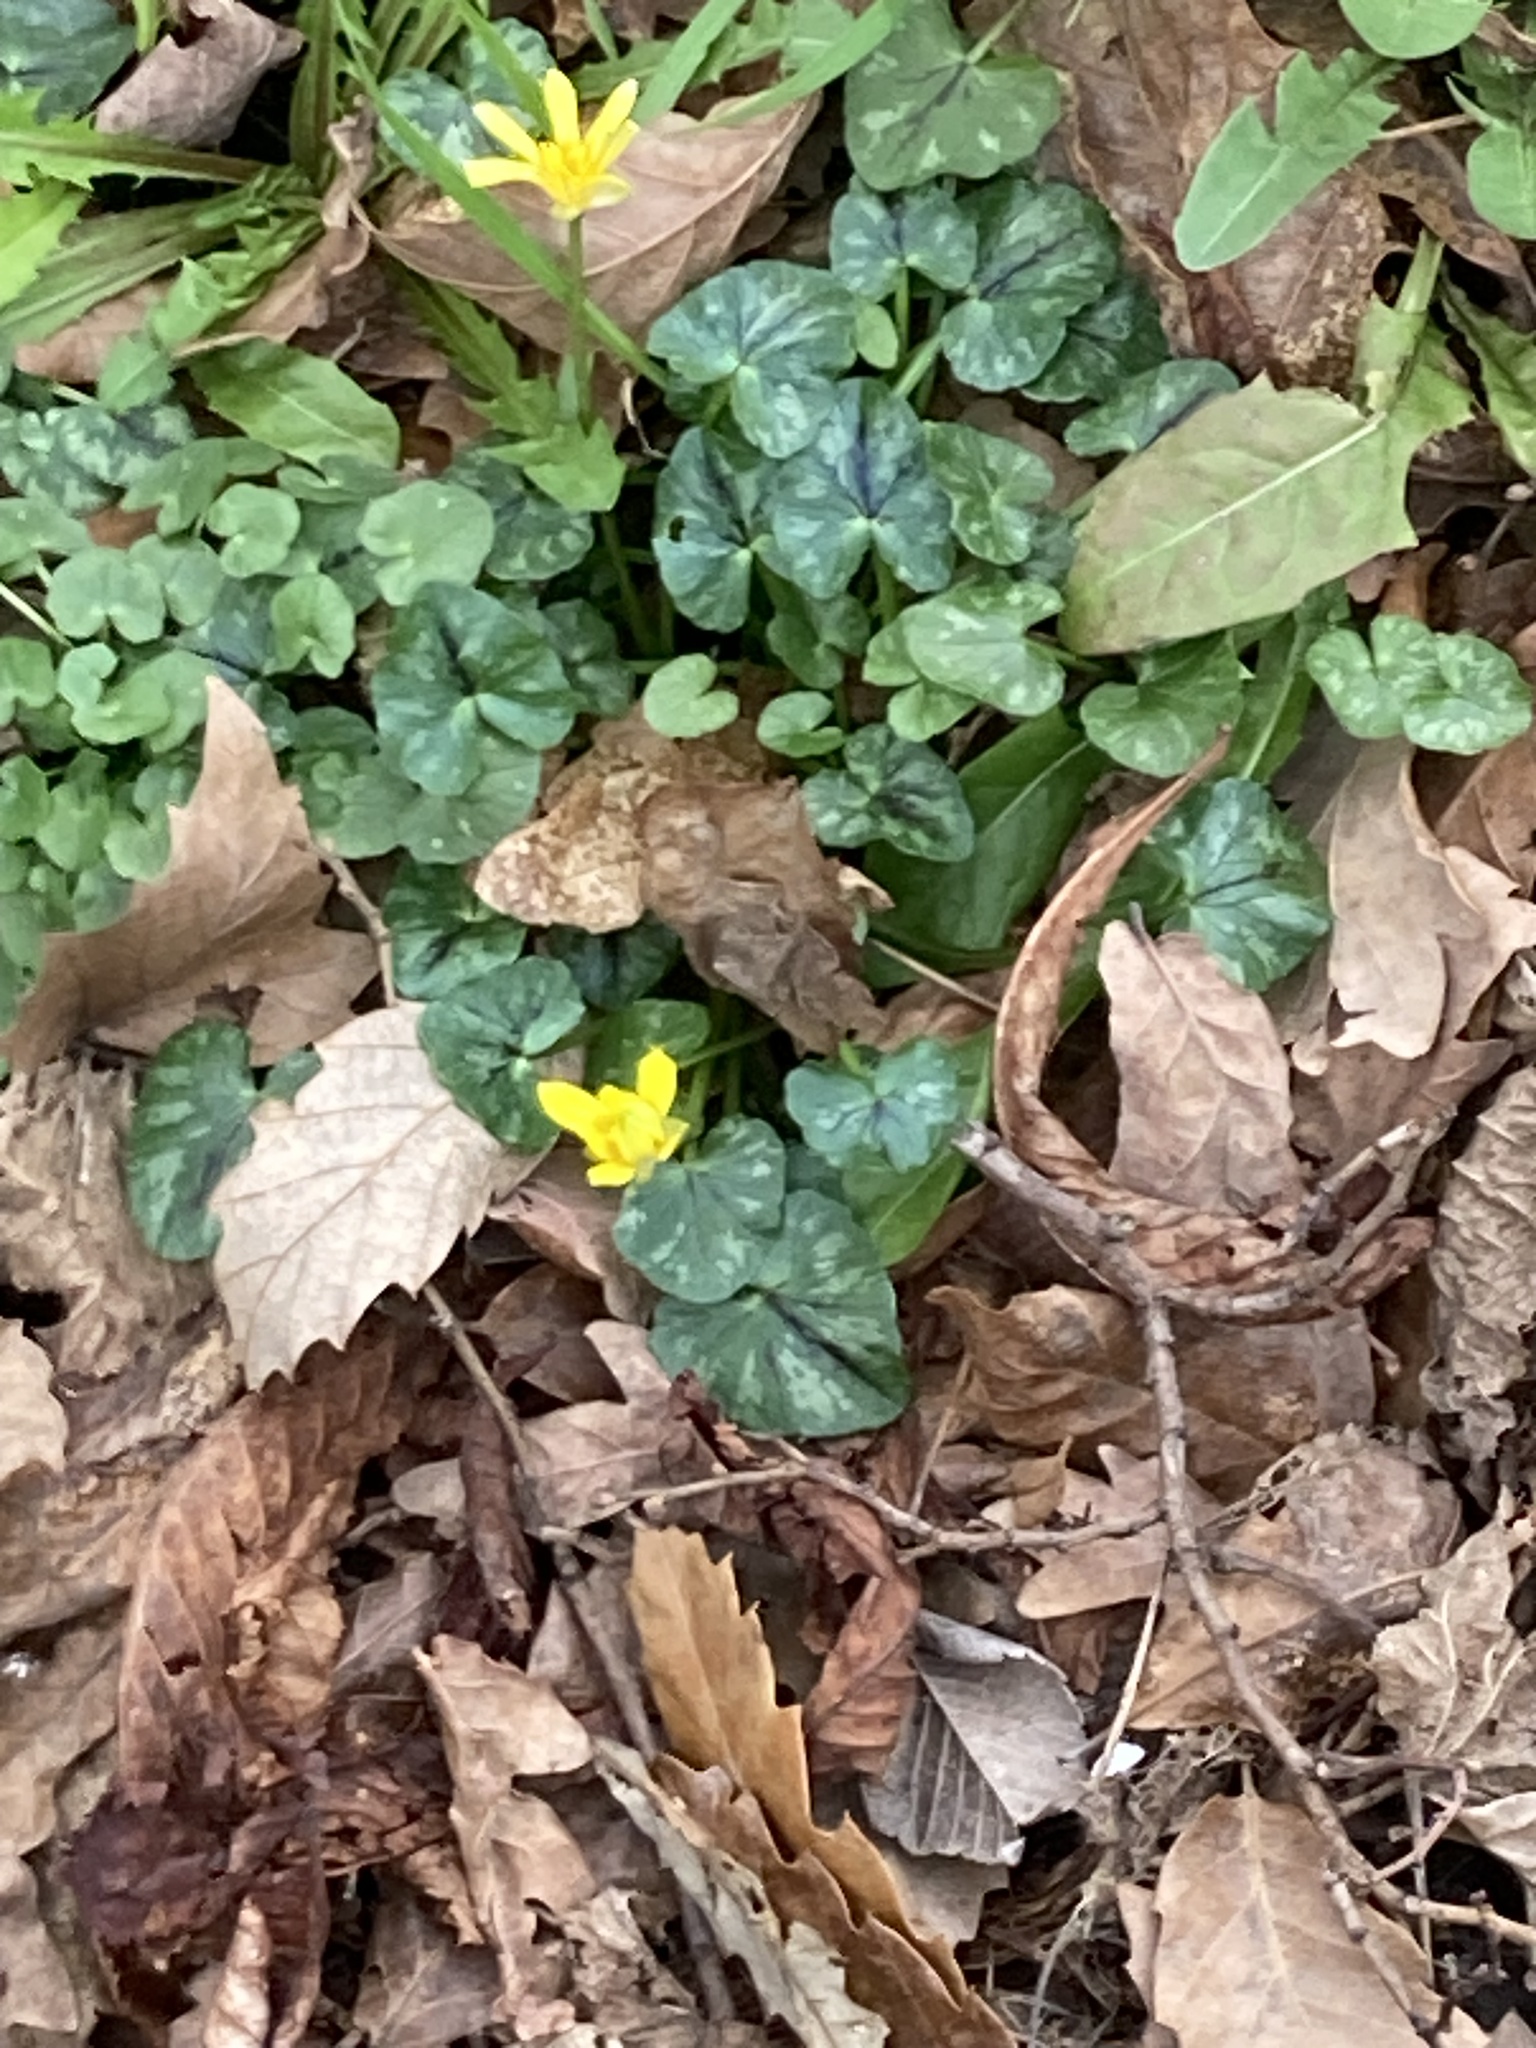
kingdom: Plantae
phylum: Tracheophyta
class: Magnoliopsida
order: Ranunculales
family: Ranunculaceae
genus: Ficaria
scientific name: Ficaria verna
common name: Lesser celandine
